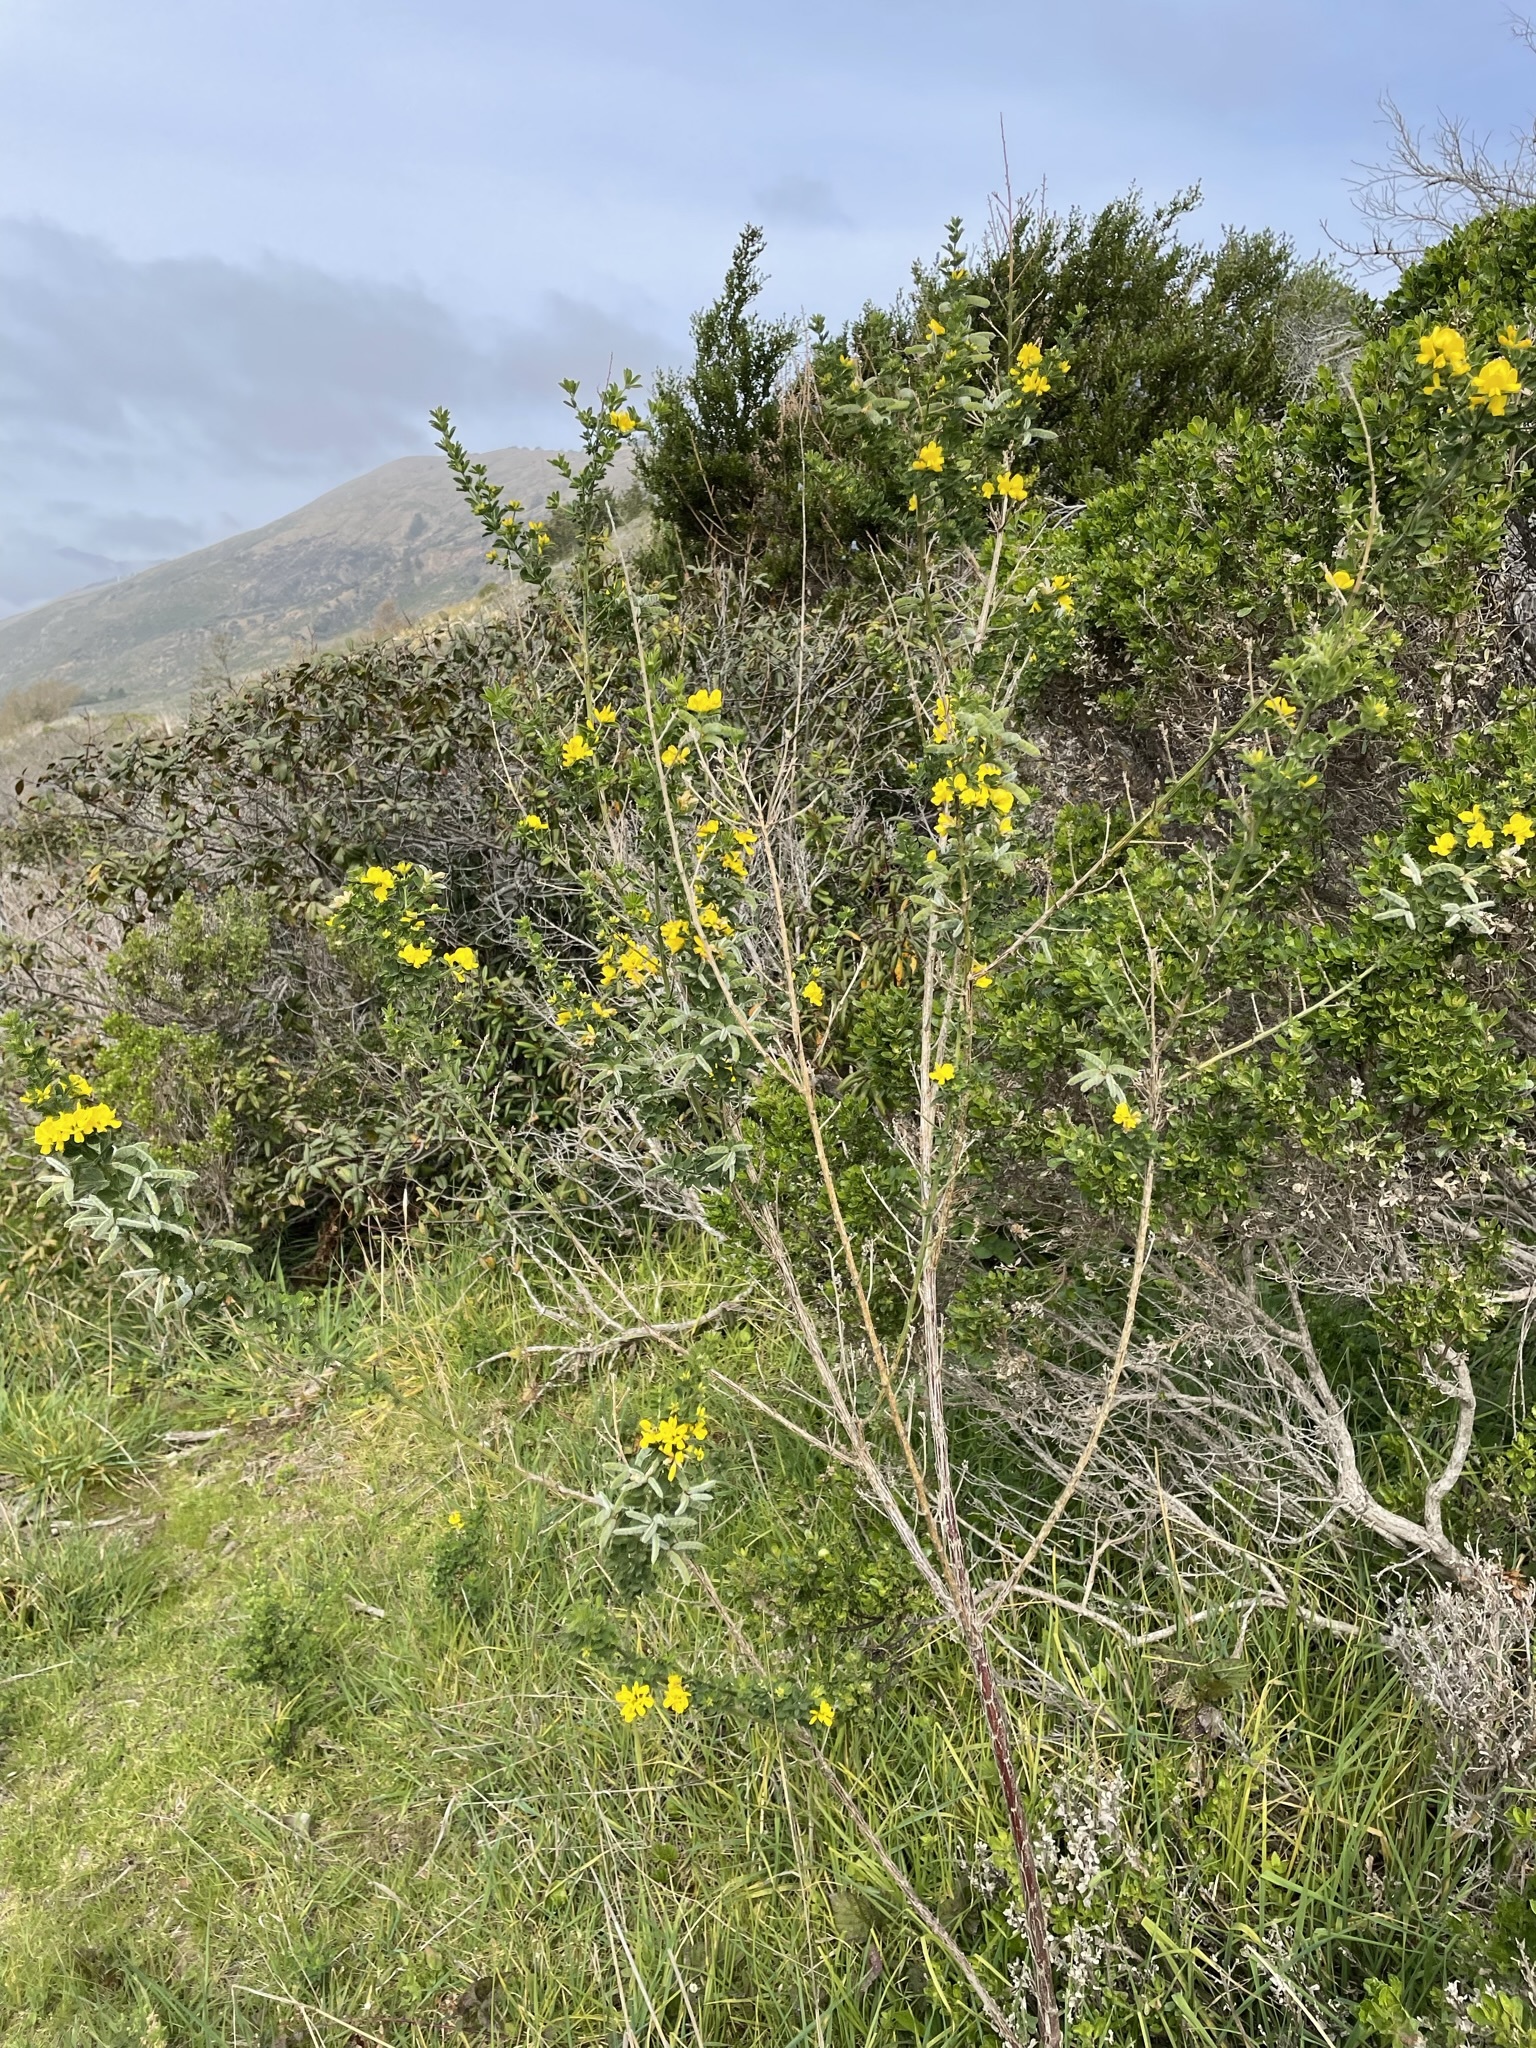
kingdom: Plantae
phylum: Tracheophyta
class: Magnoliopsida
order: Fabales
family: Fabaceae
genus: Genista
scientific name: Genista monspessulana
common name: Montpellier broom
